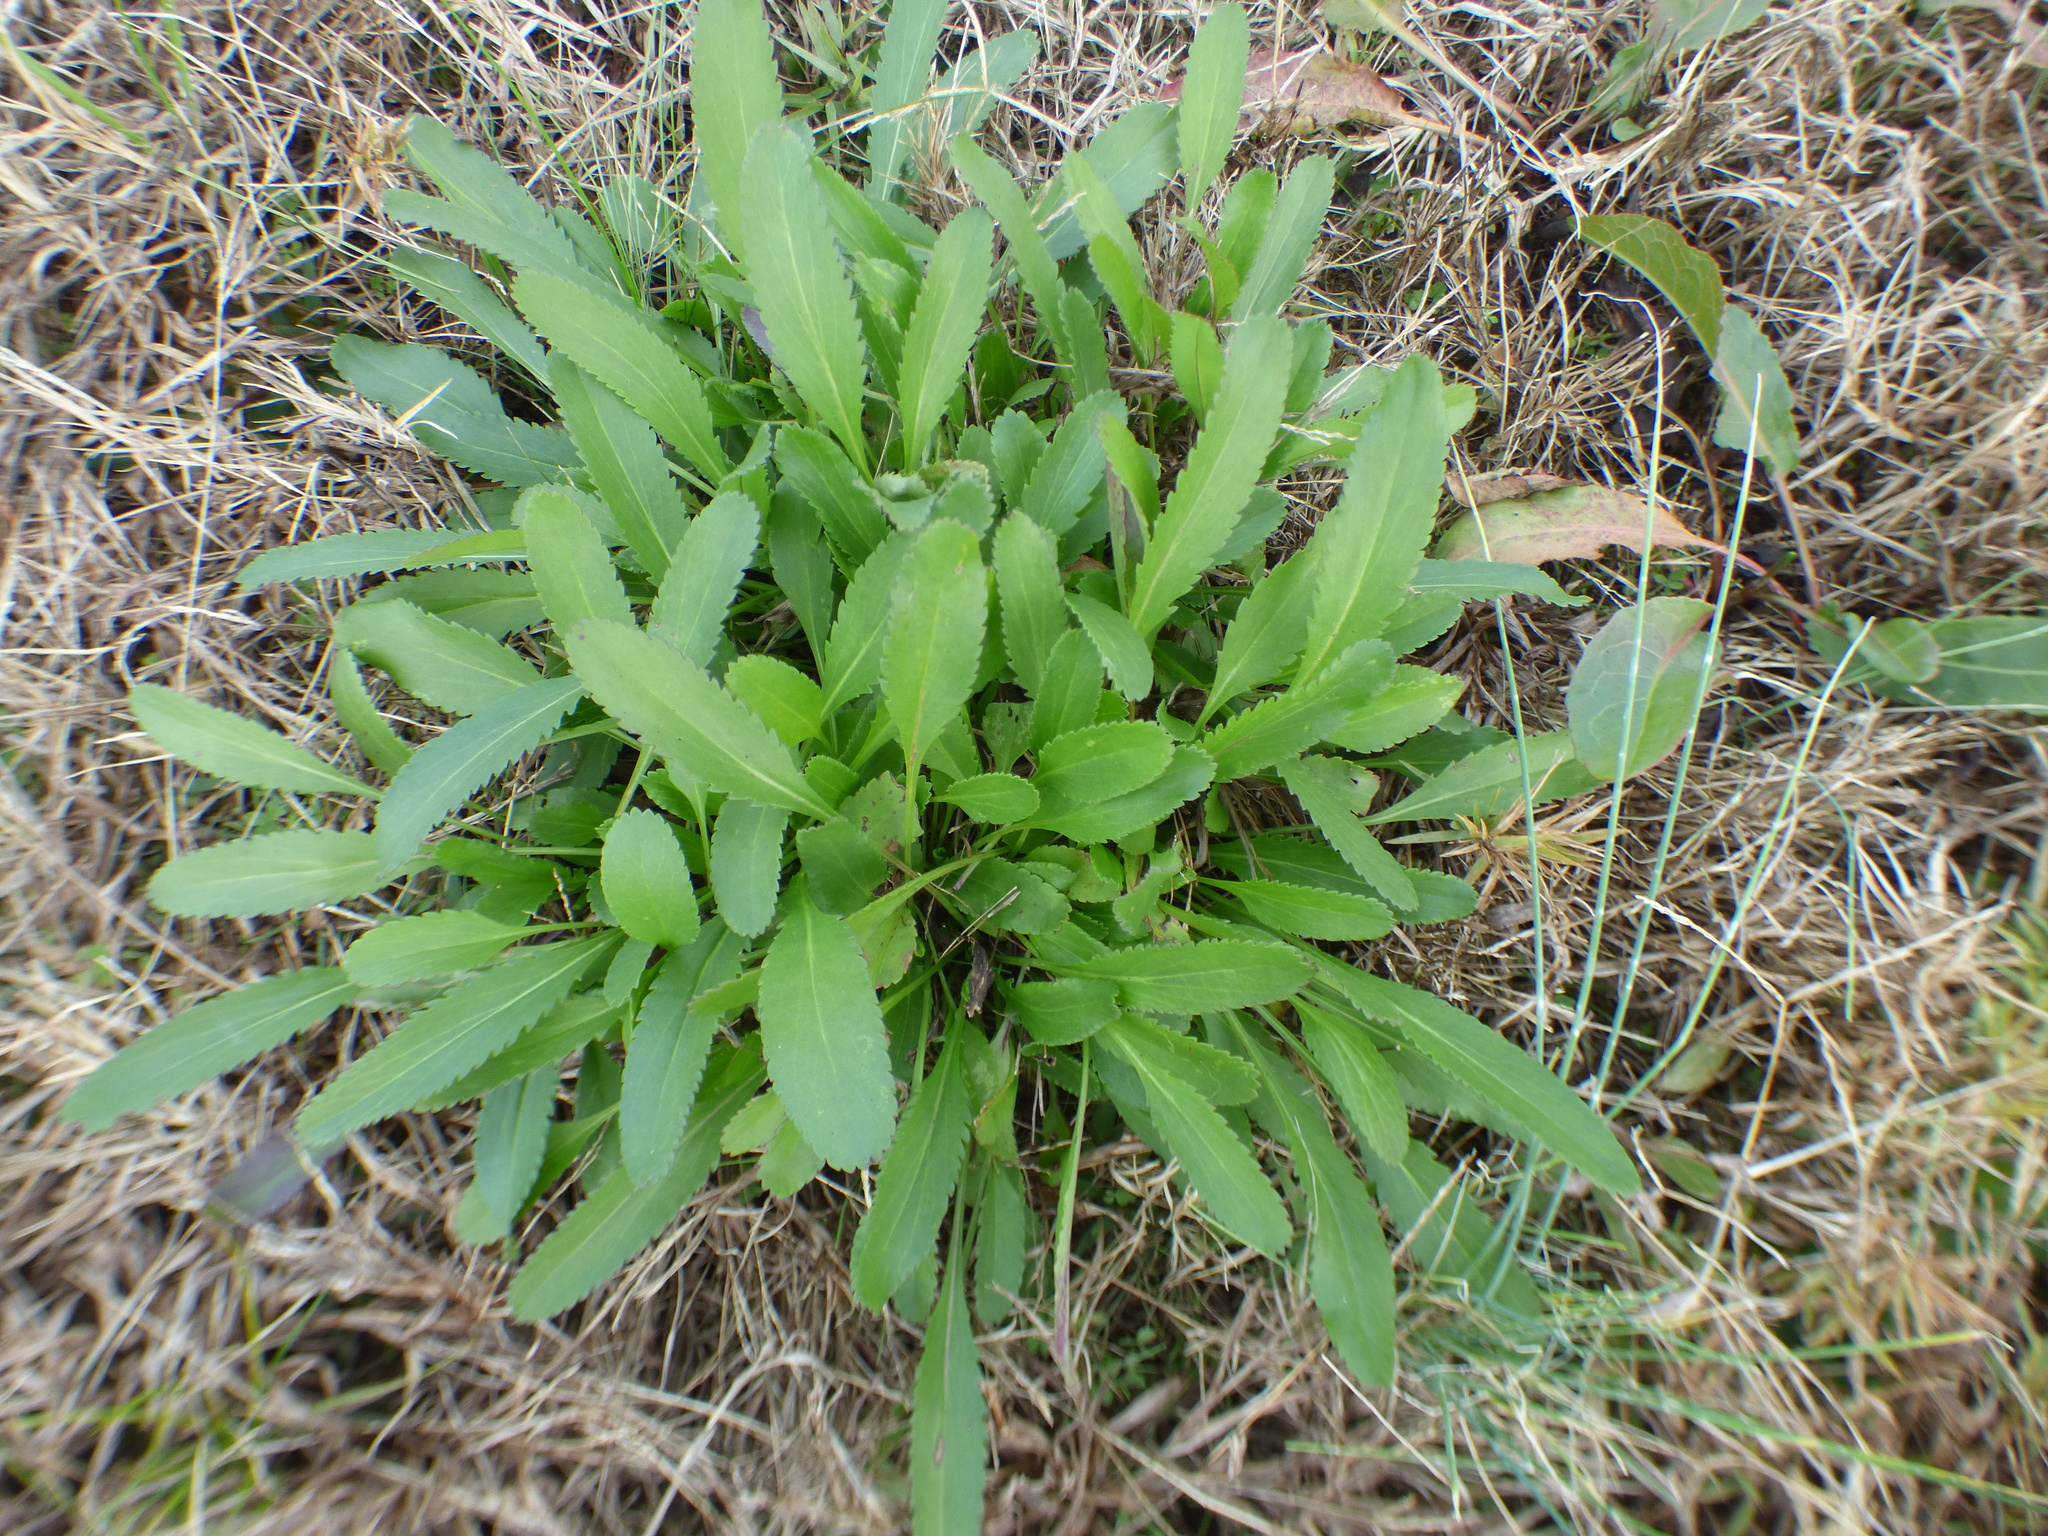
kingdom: Plantae
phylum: Tracheophyta
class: Magnoliopsida
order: Asterales
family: Asteraceae
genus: Packera
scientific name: Packera anonyma
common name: Small ragwort
